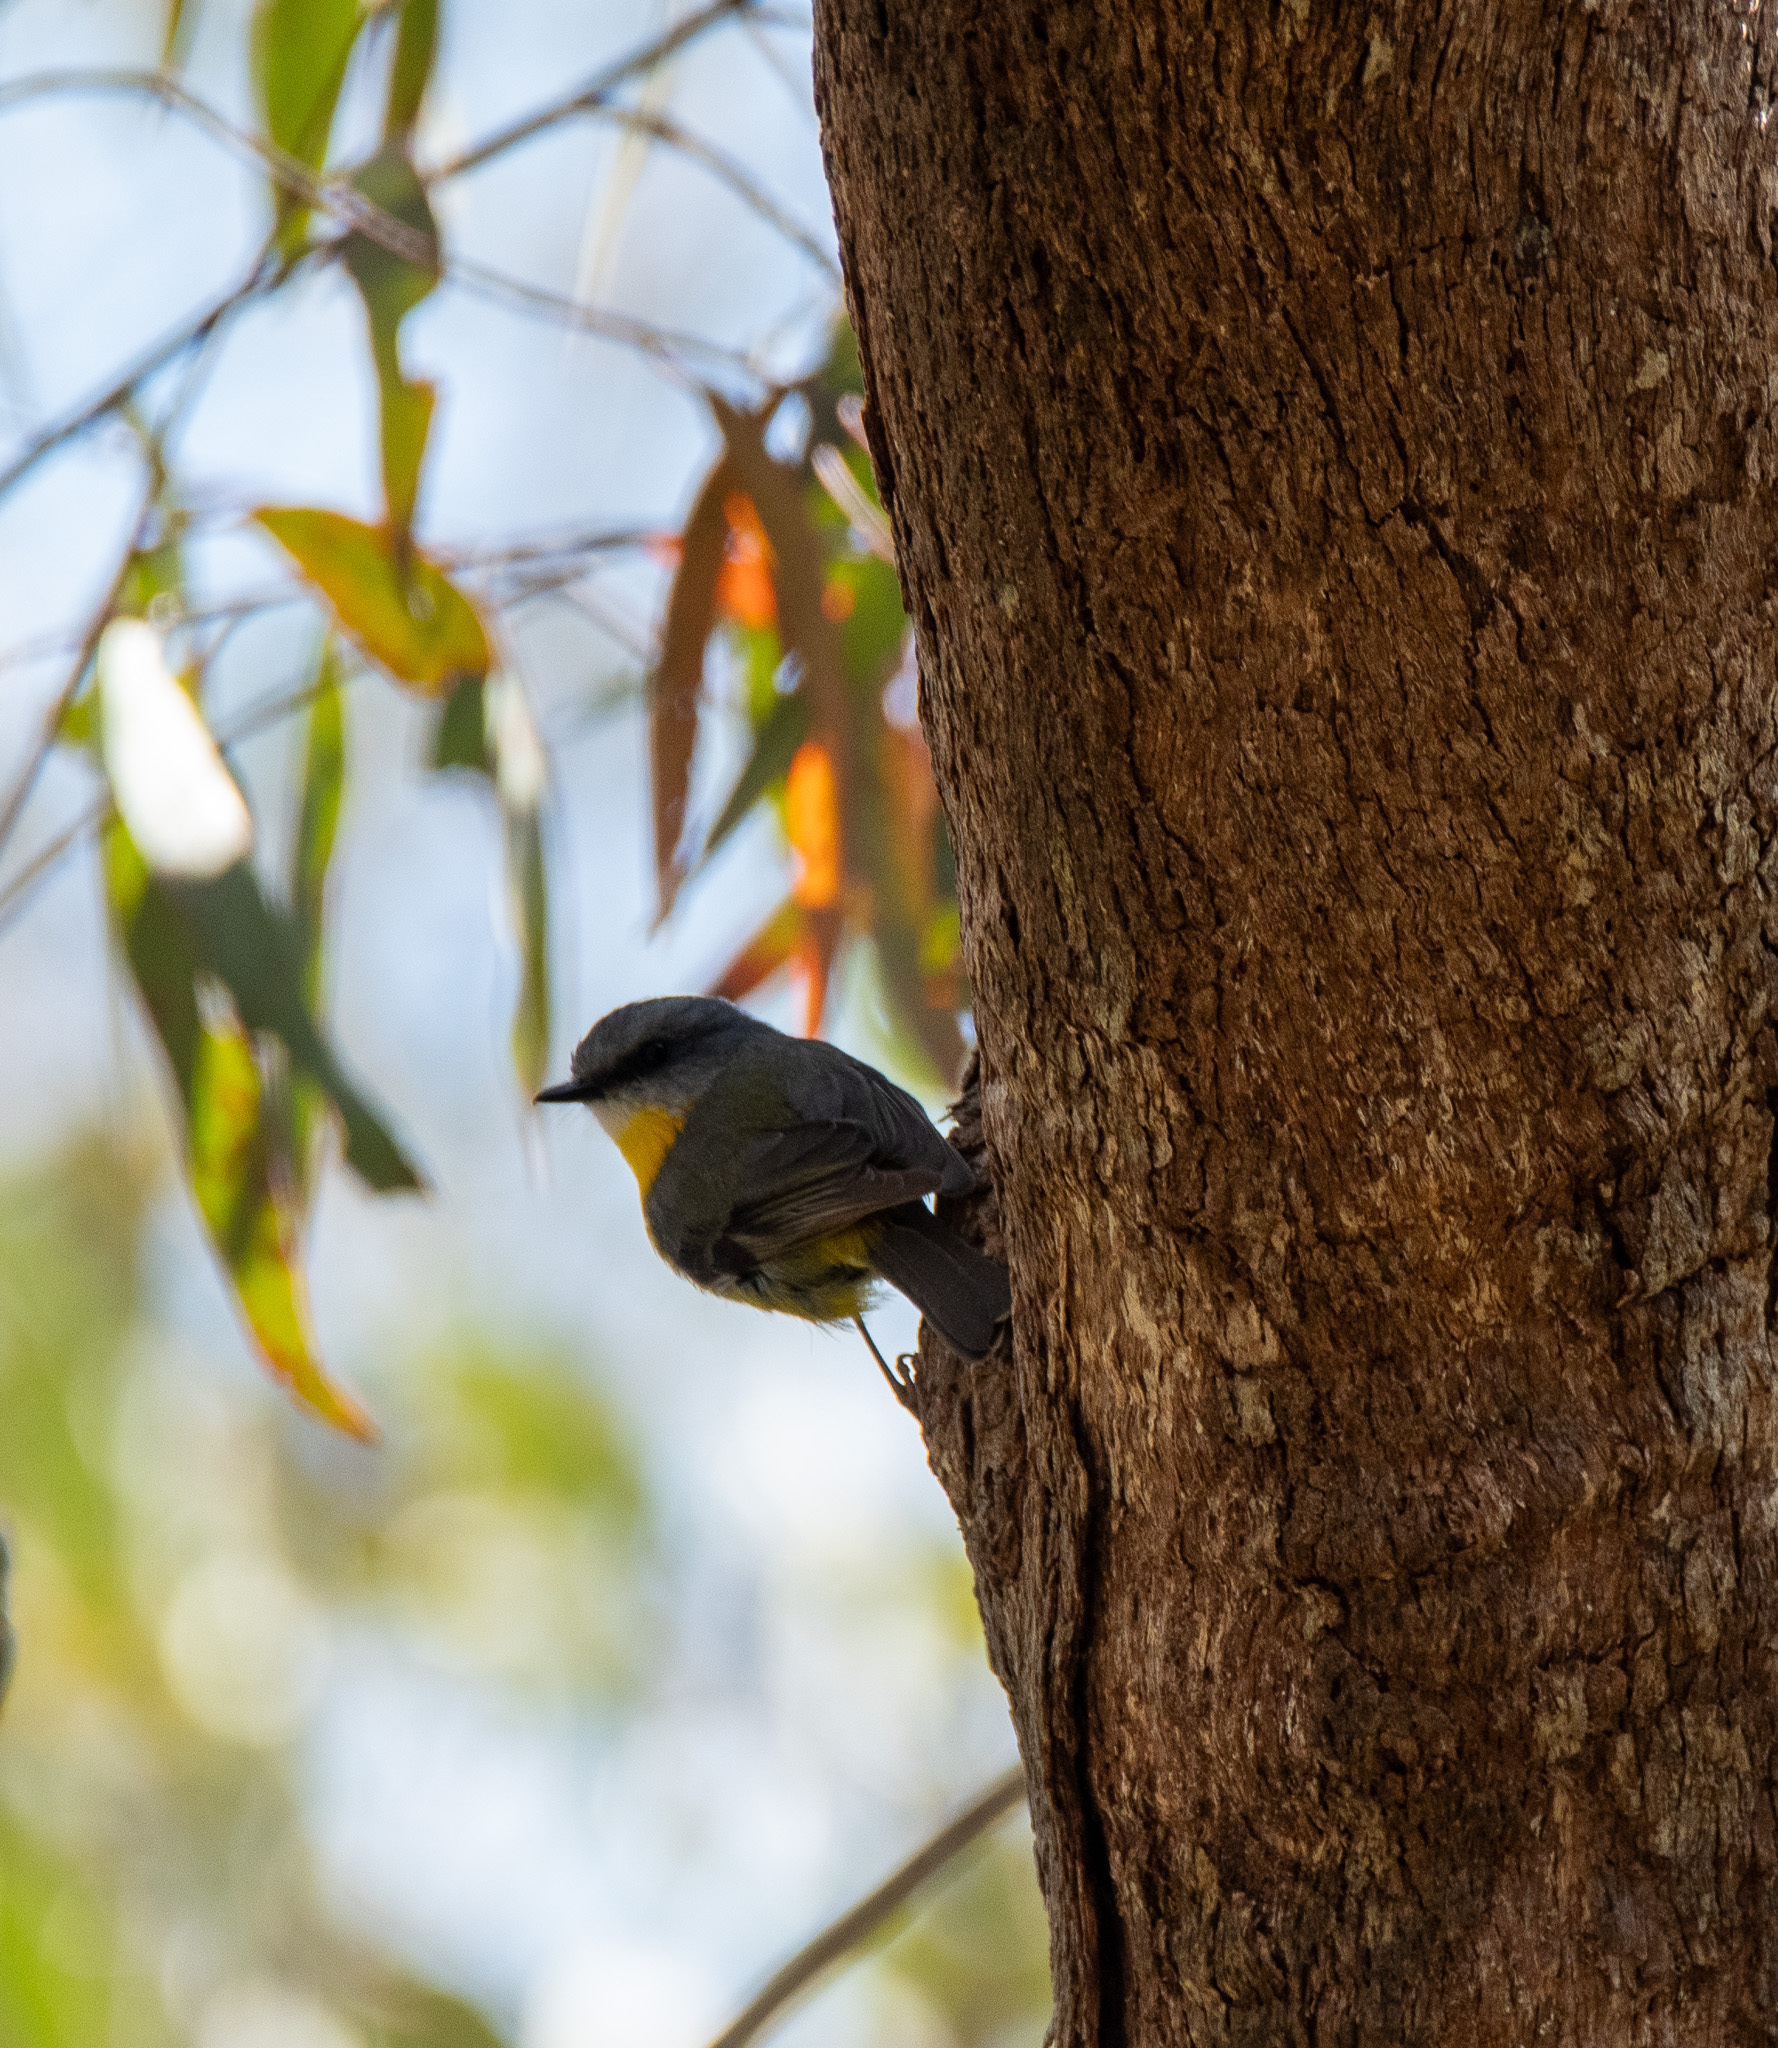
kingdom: Animalia
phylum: Chordata
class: Aves
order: Passeriformes
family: Petroicidae
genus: Eopsaltria
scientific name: Eopsaltria australis
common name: Eastern yellow robin
